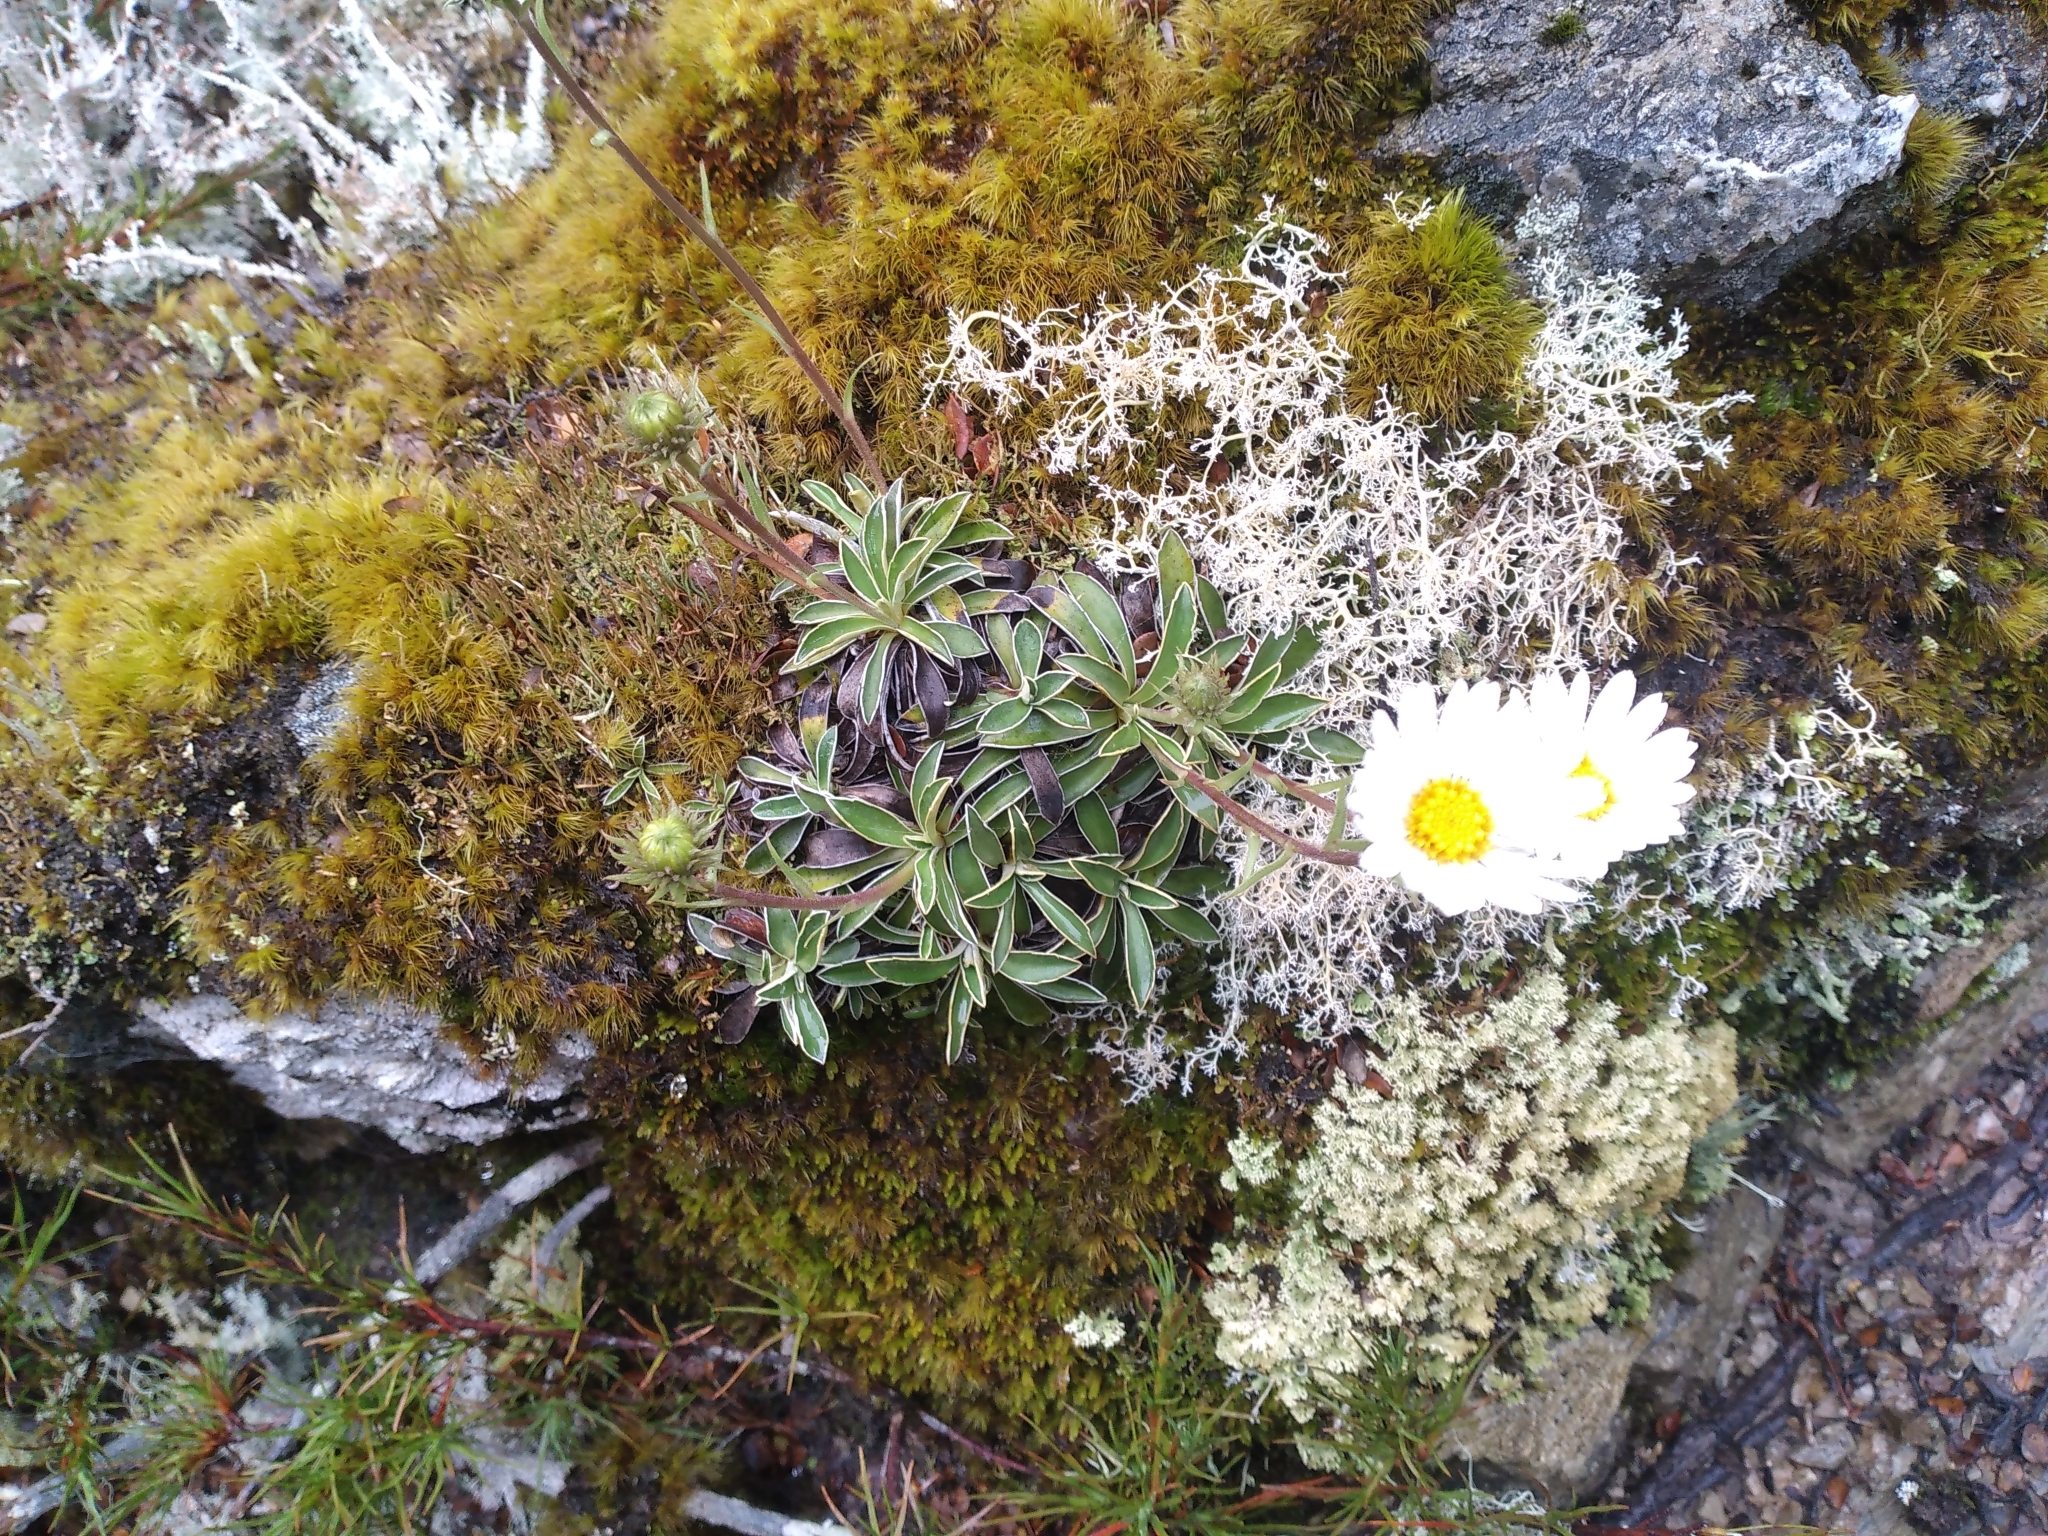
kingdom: Plantae
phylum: Tracheophyta
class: Magnoliopsida
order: Asterales
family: Asteraceae
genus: Celmisia
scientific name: Celmisia hieraciifolia
